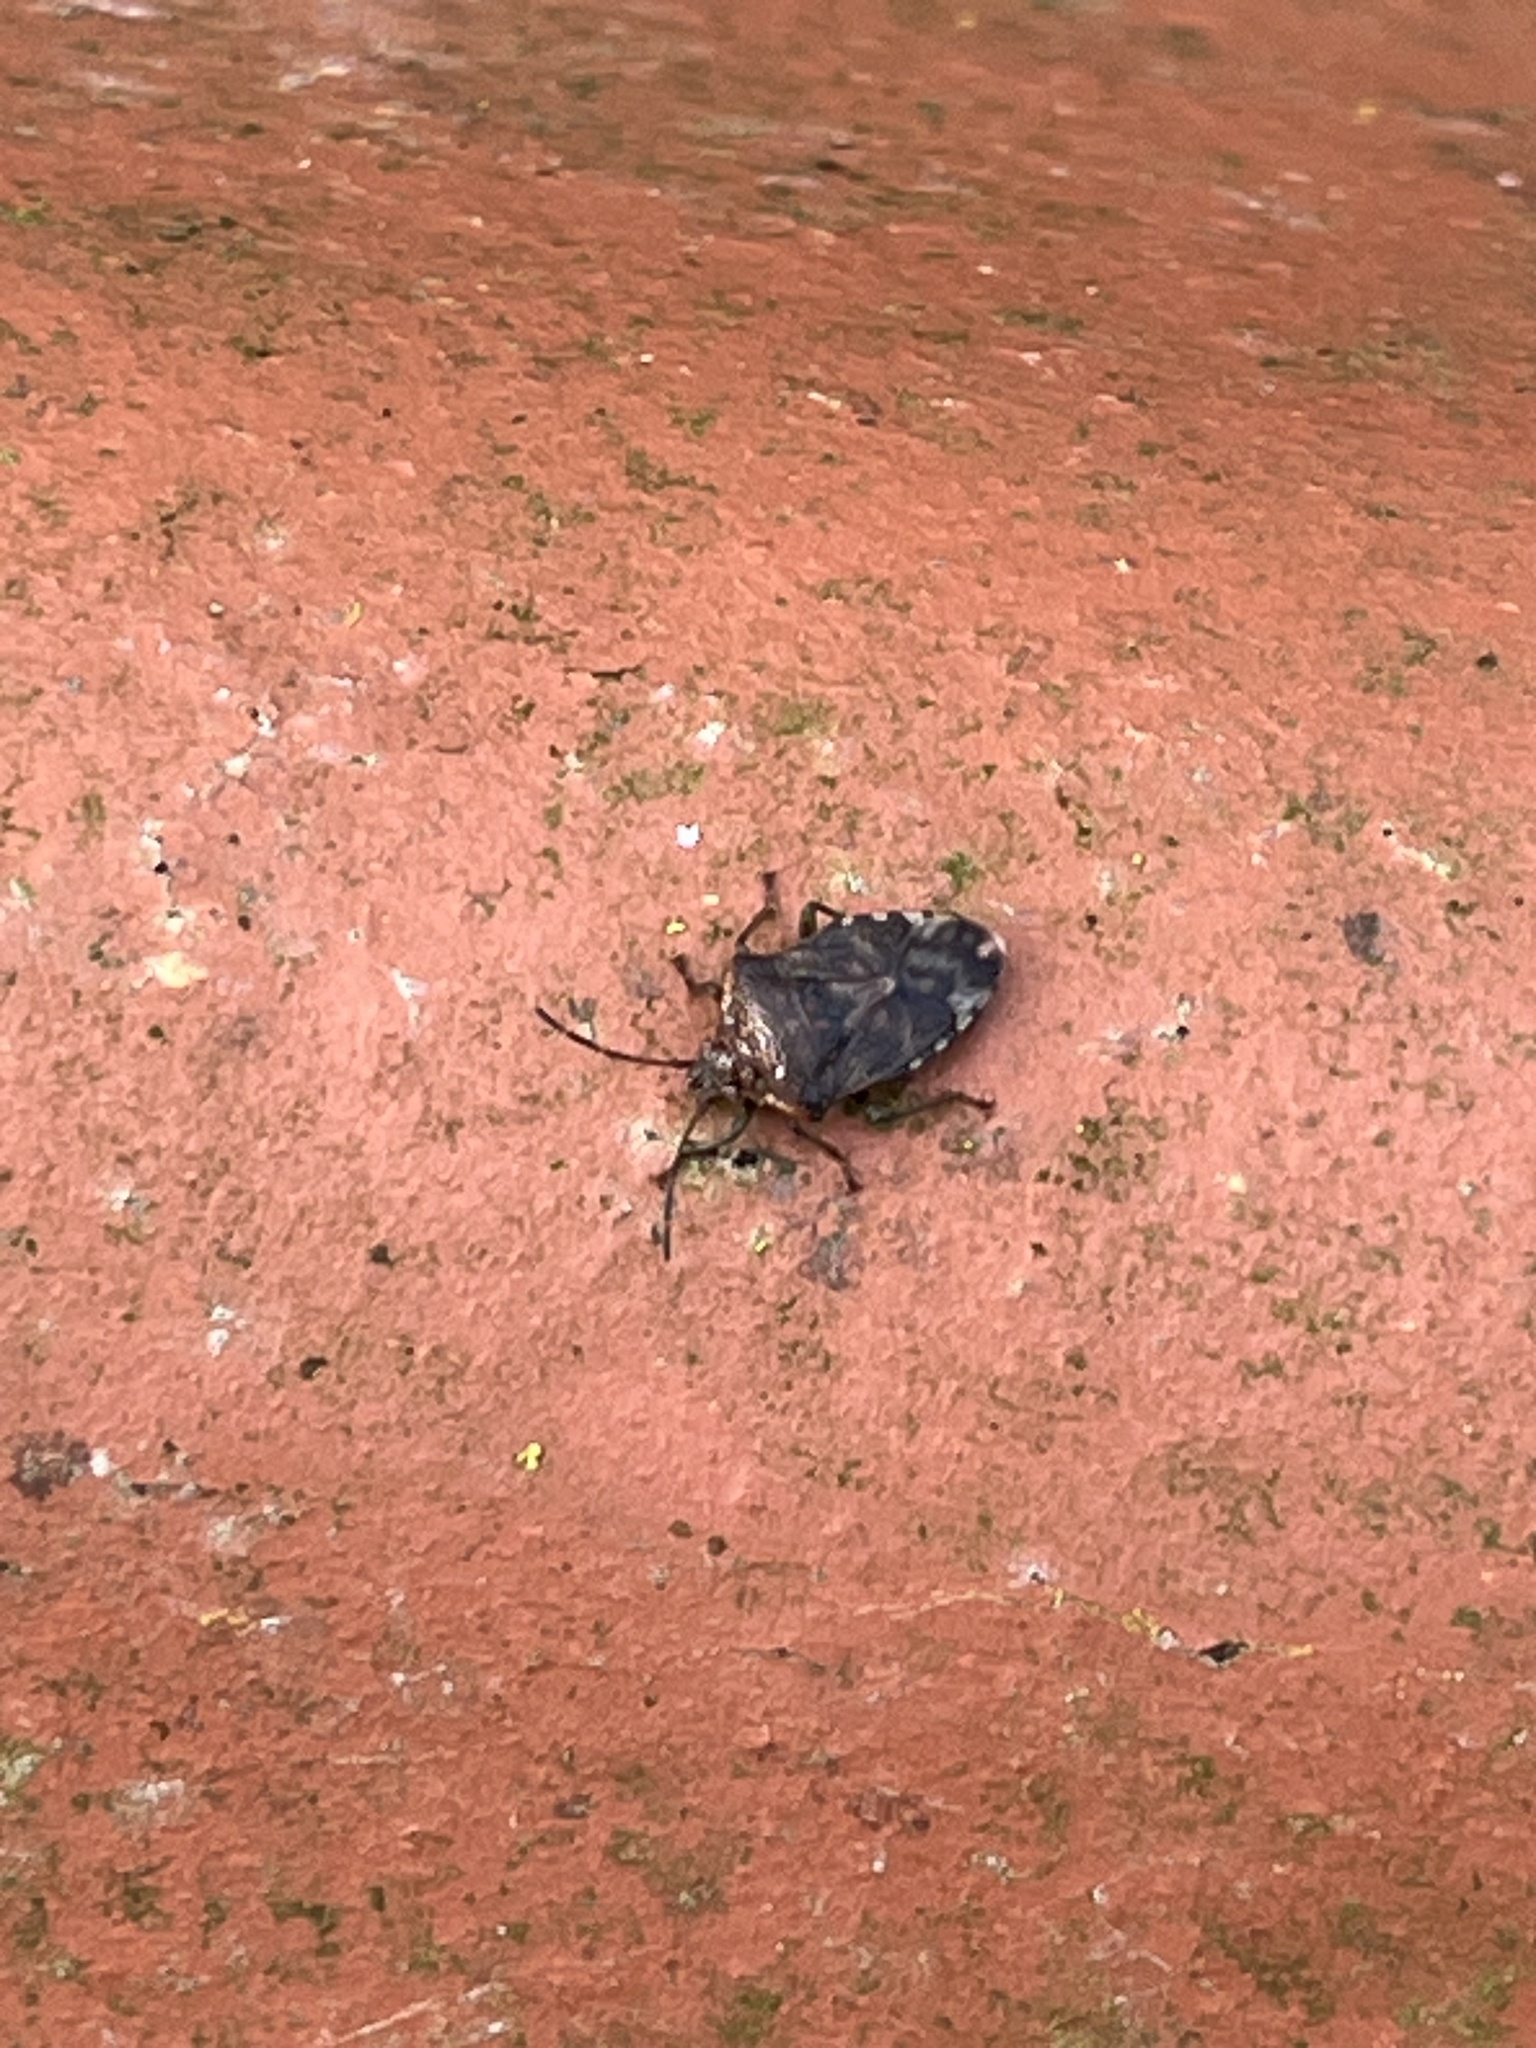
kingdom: Animalia
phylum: Arthropoda
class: Insecta
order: Hemiptera
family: Acanthosomatidae
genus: Elasmucha
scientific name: Elasmucha grisea
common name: Parent bug
